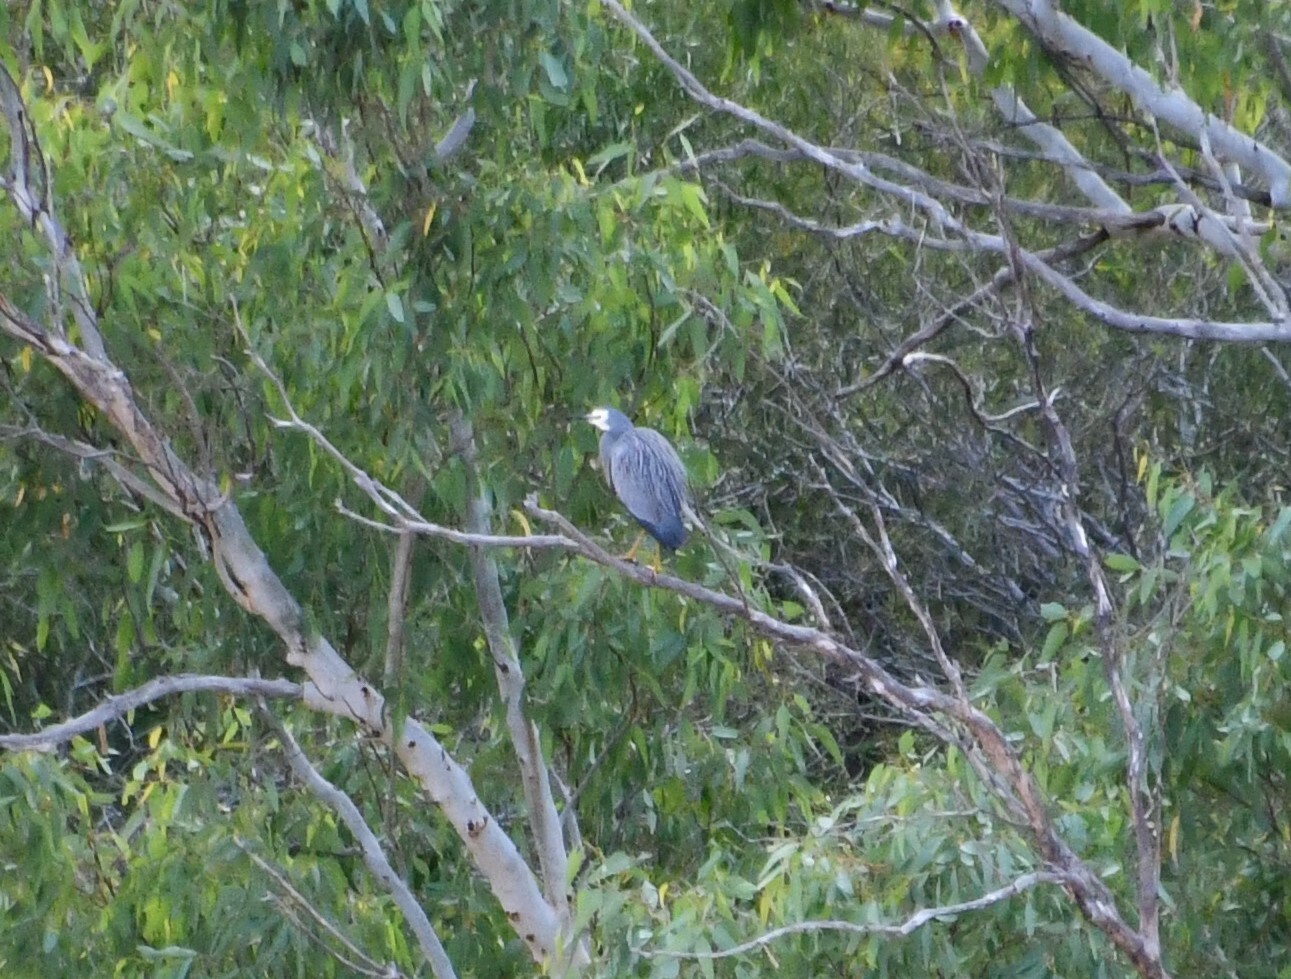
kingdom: Animalia
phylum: Chordata
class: Aves
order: Pelecaniformes
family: Ardeidae
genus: Egretta
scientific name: Egretta novaehollandiae
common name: White-faced heron
